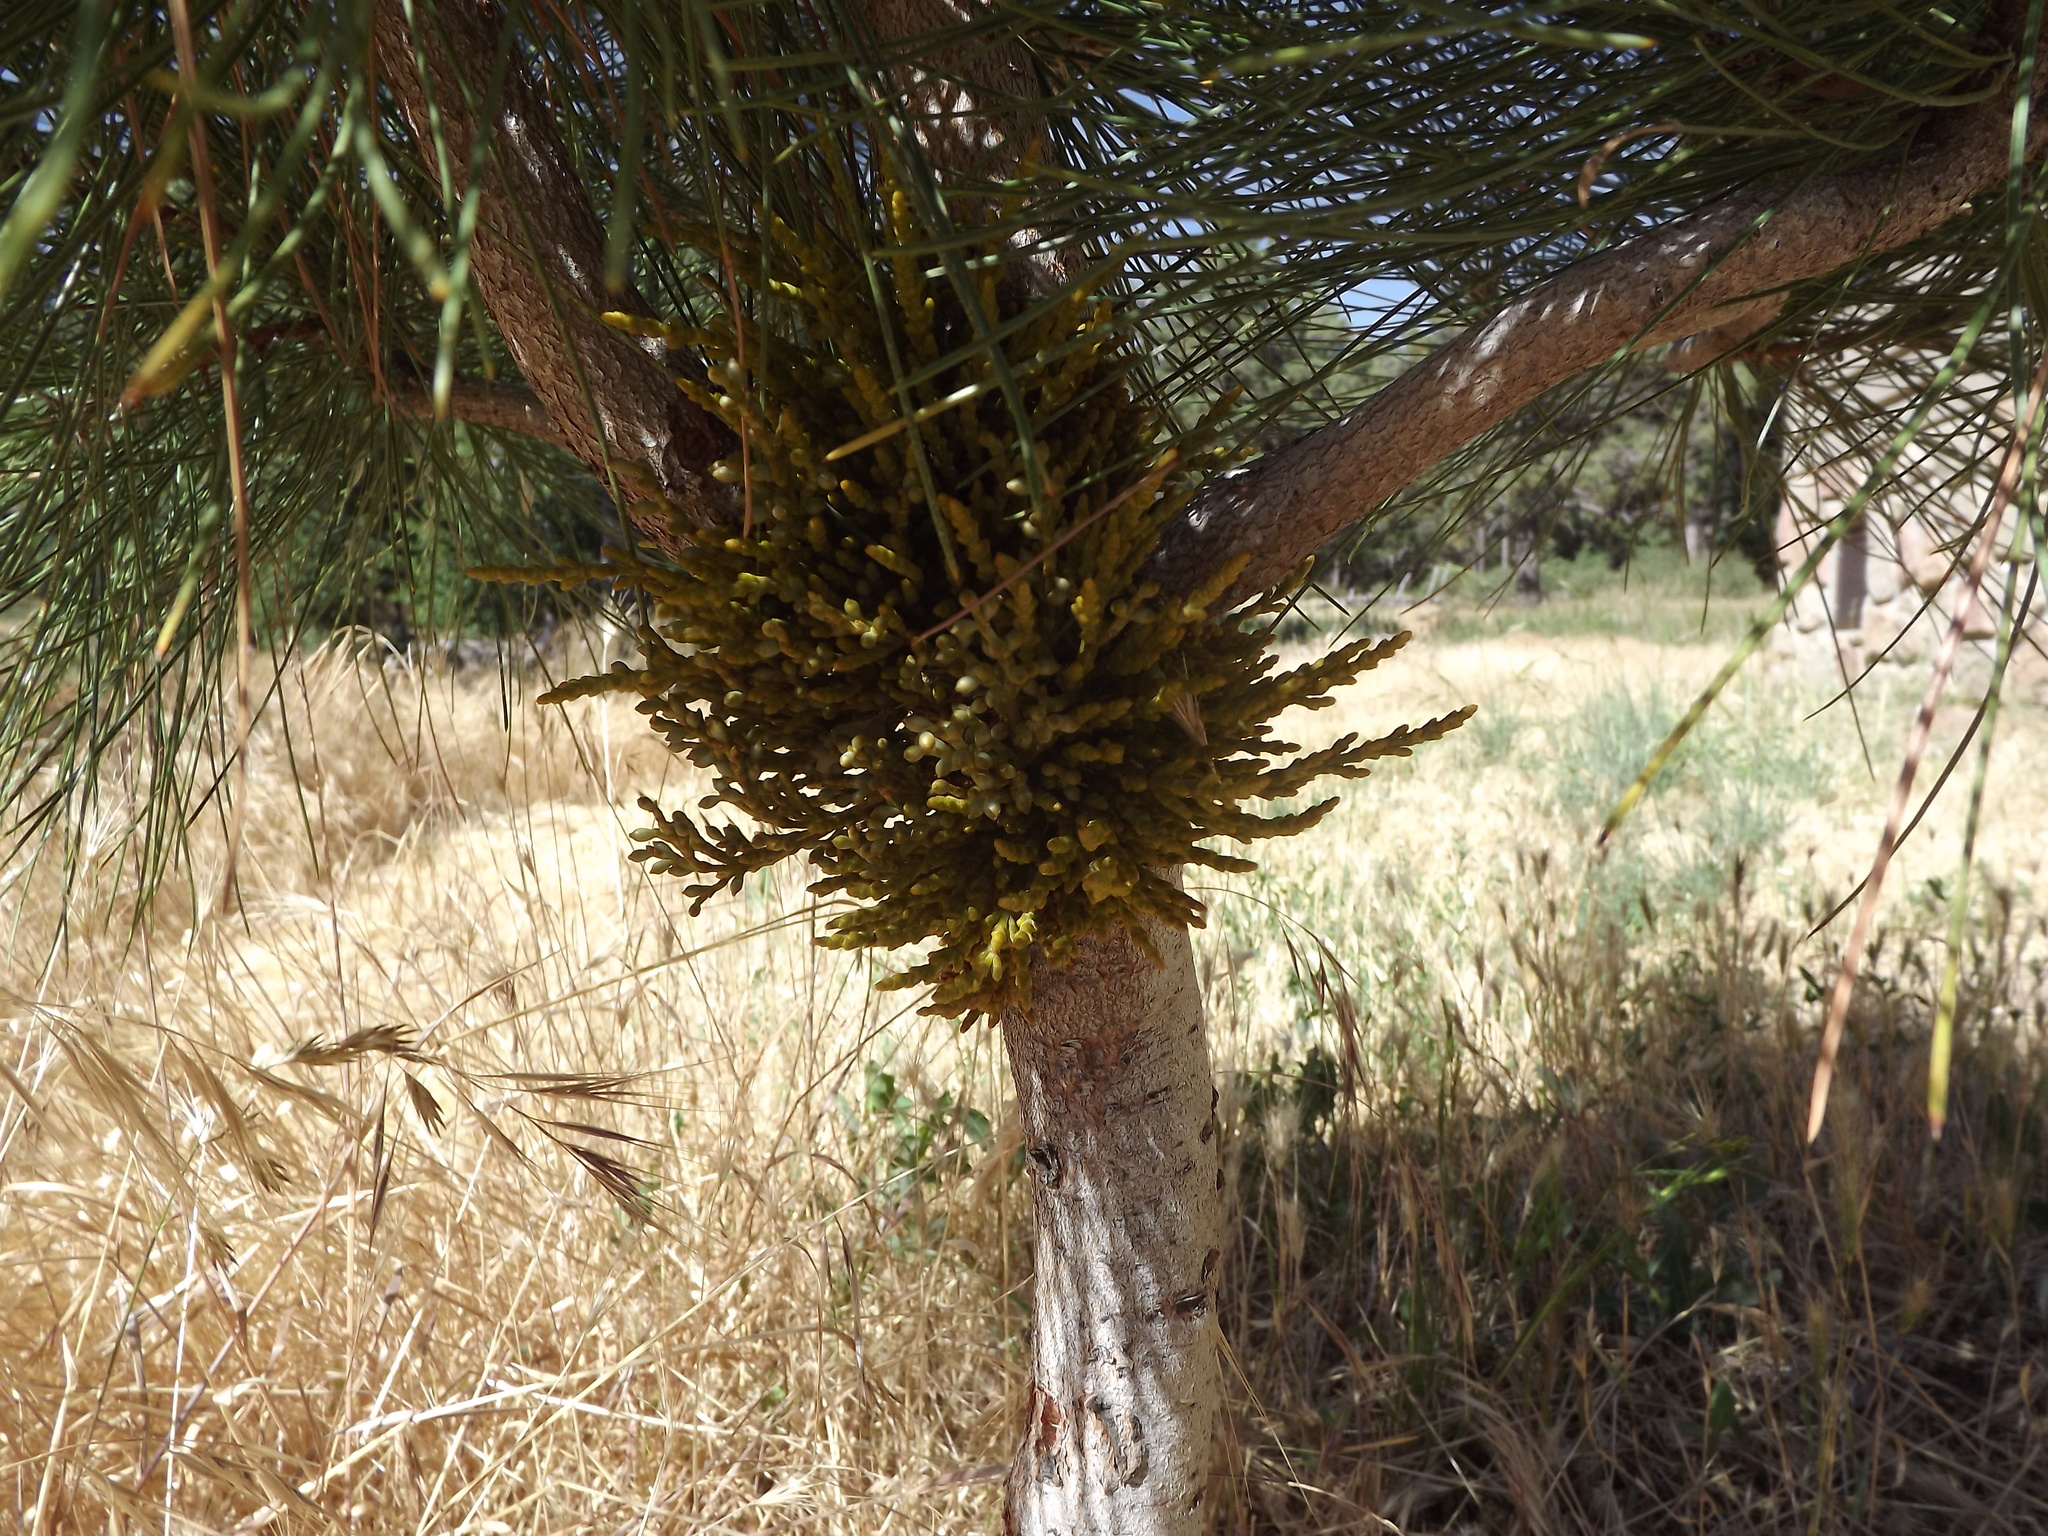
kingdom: Plantae
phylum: Tracheophyta
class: Magnoliopsida
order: Santalales
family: Viscaceae
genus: Arceuthobium
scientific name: Arceuthobium campylopodum
